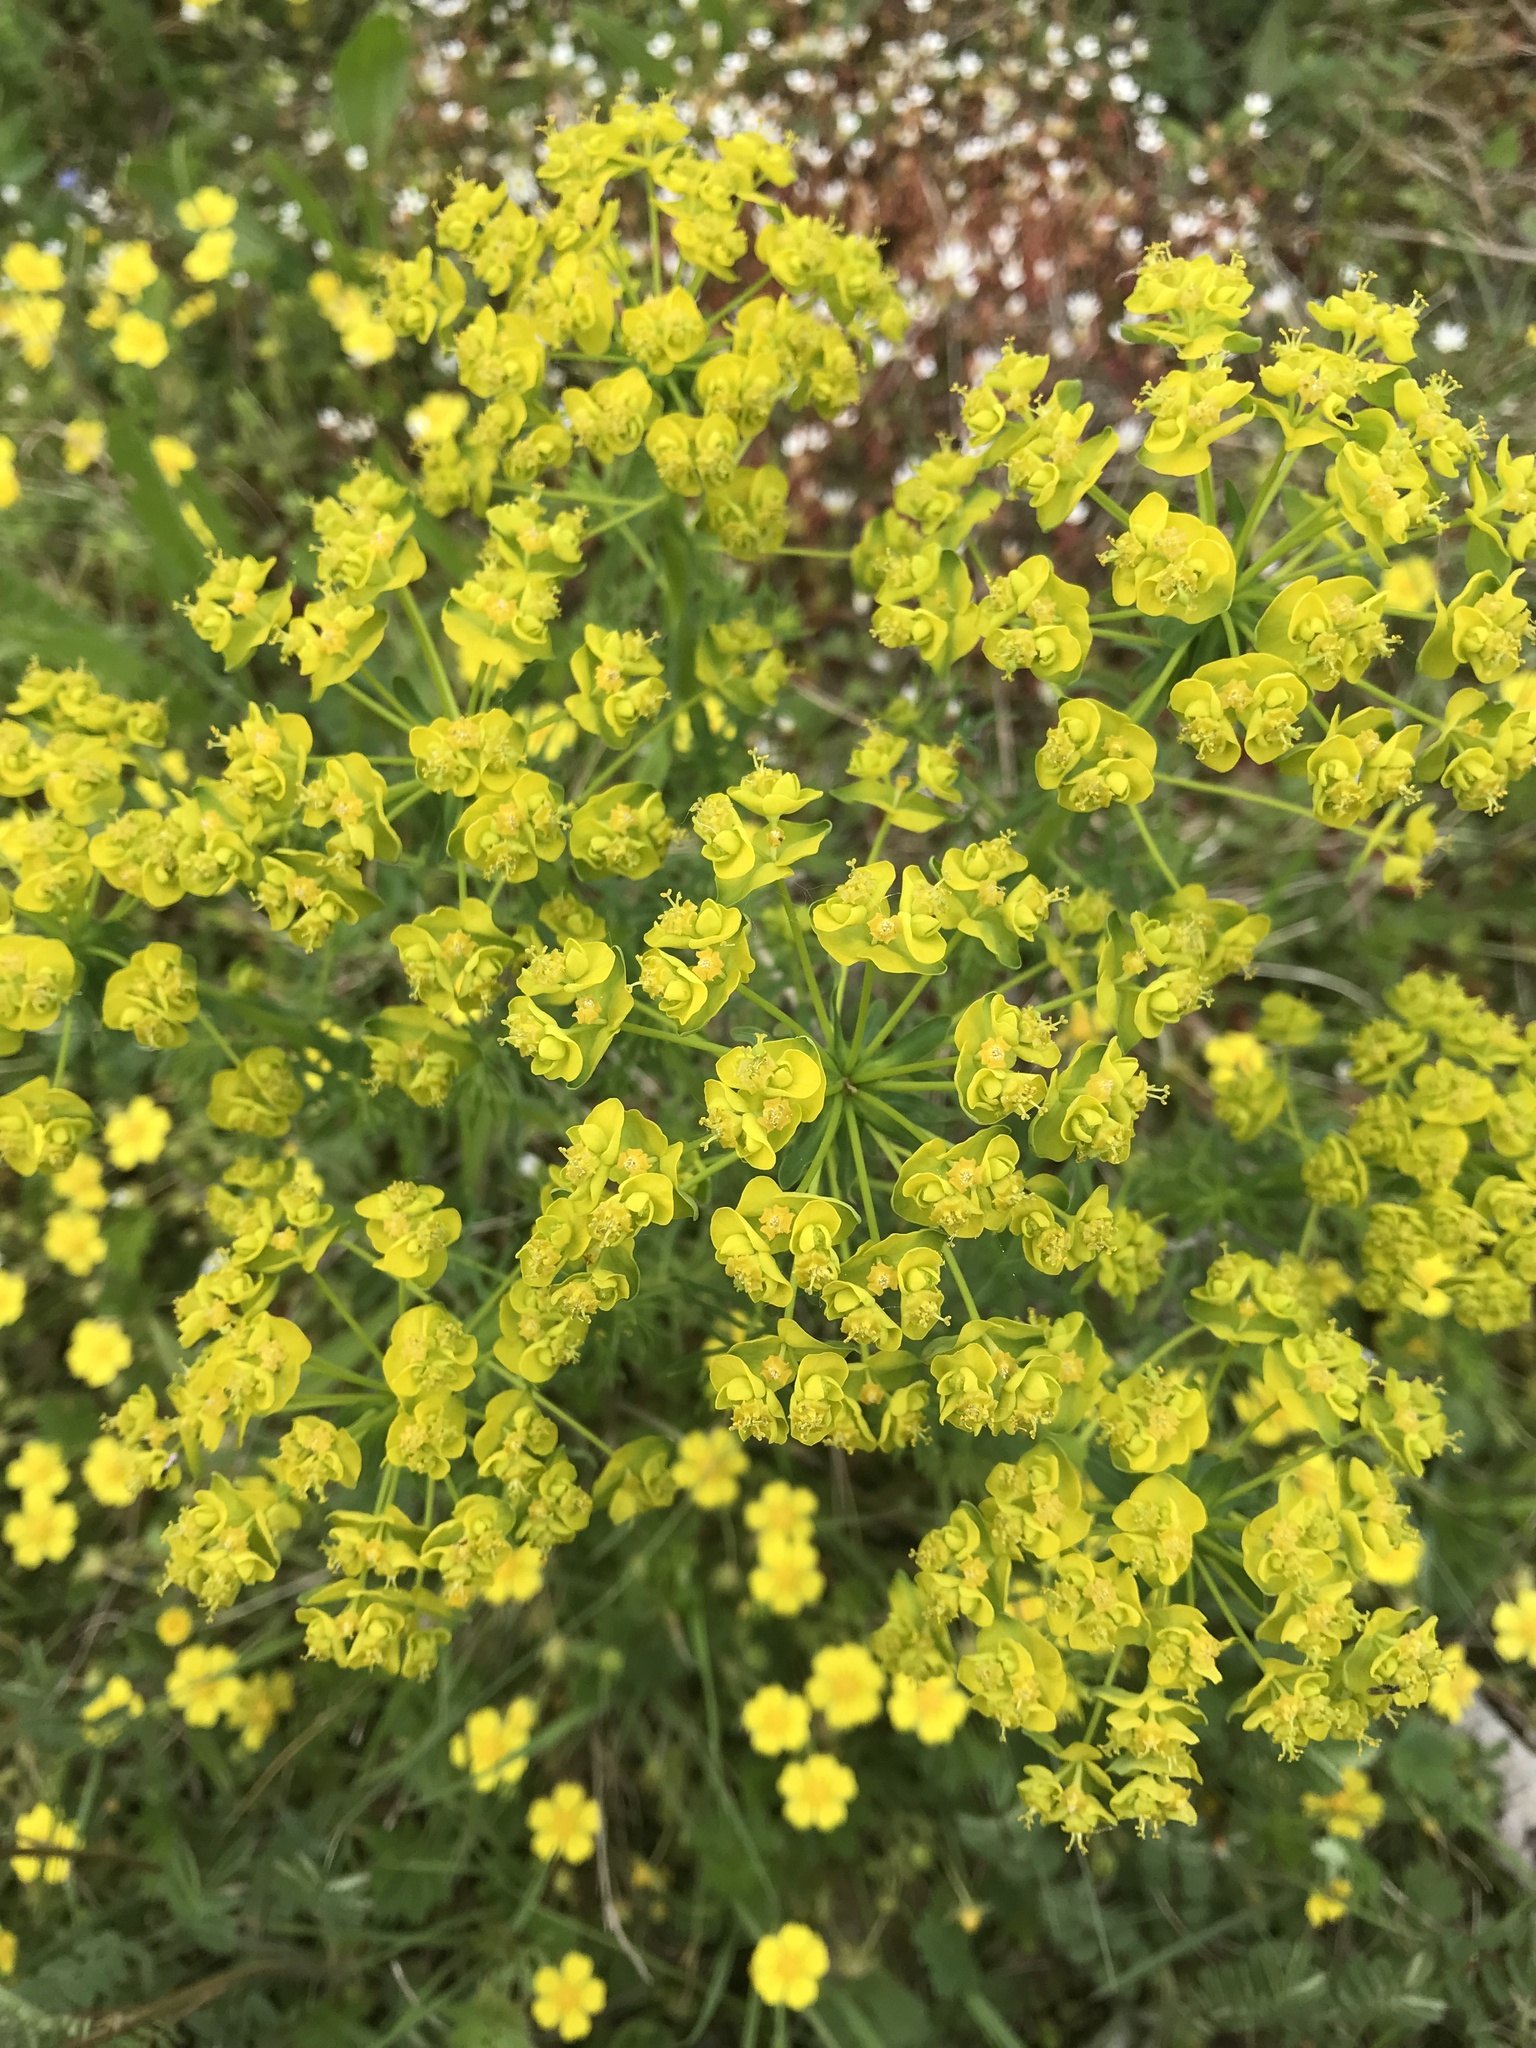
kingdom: Plantae
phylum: Tracheophyta
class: Magnoliopsida
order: Malpighiales
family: Euphorbiaceae
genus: Euphorbia
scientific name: Euphorbia cyparissias
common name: Cypress spurge
